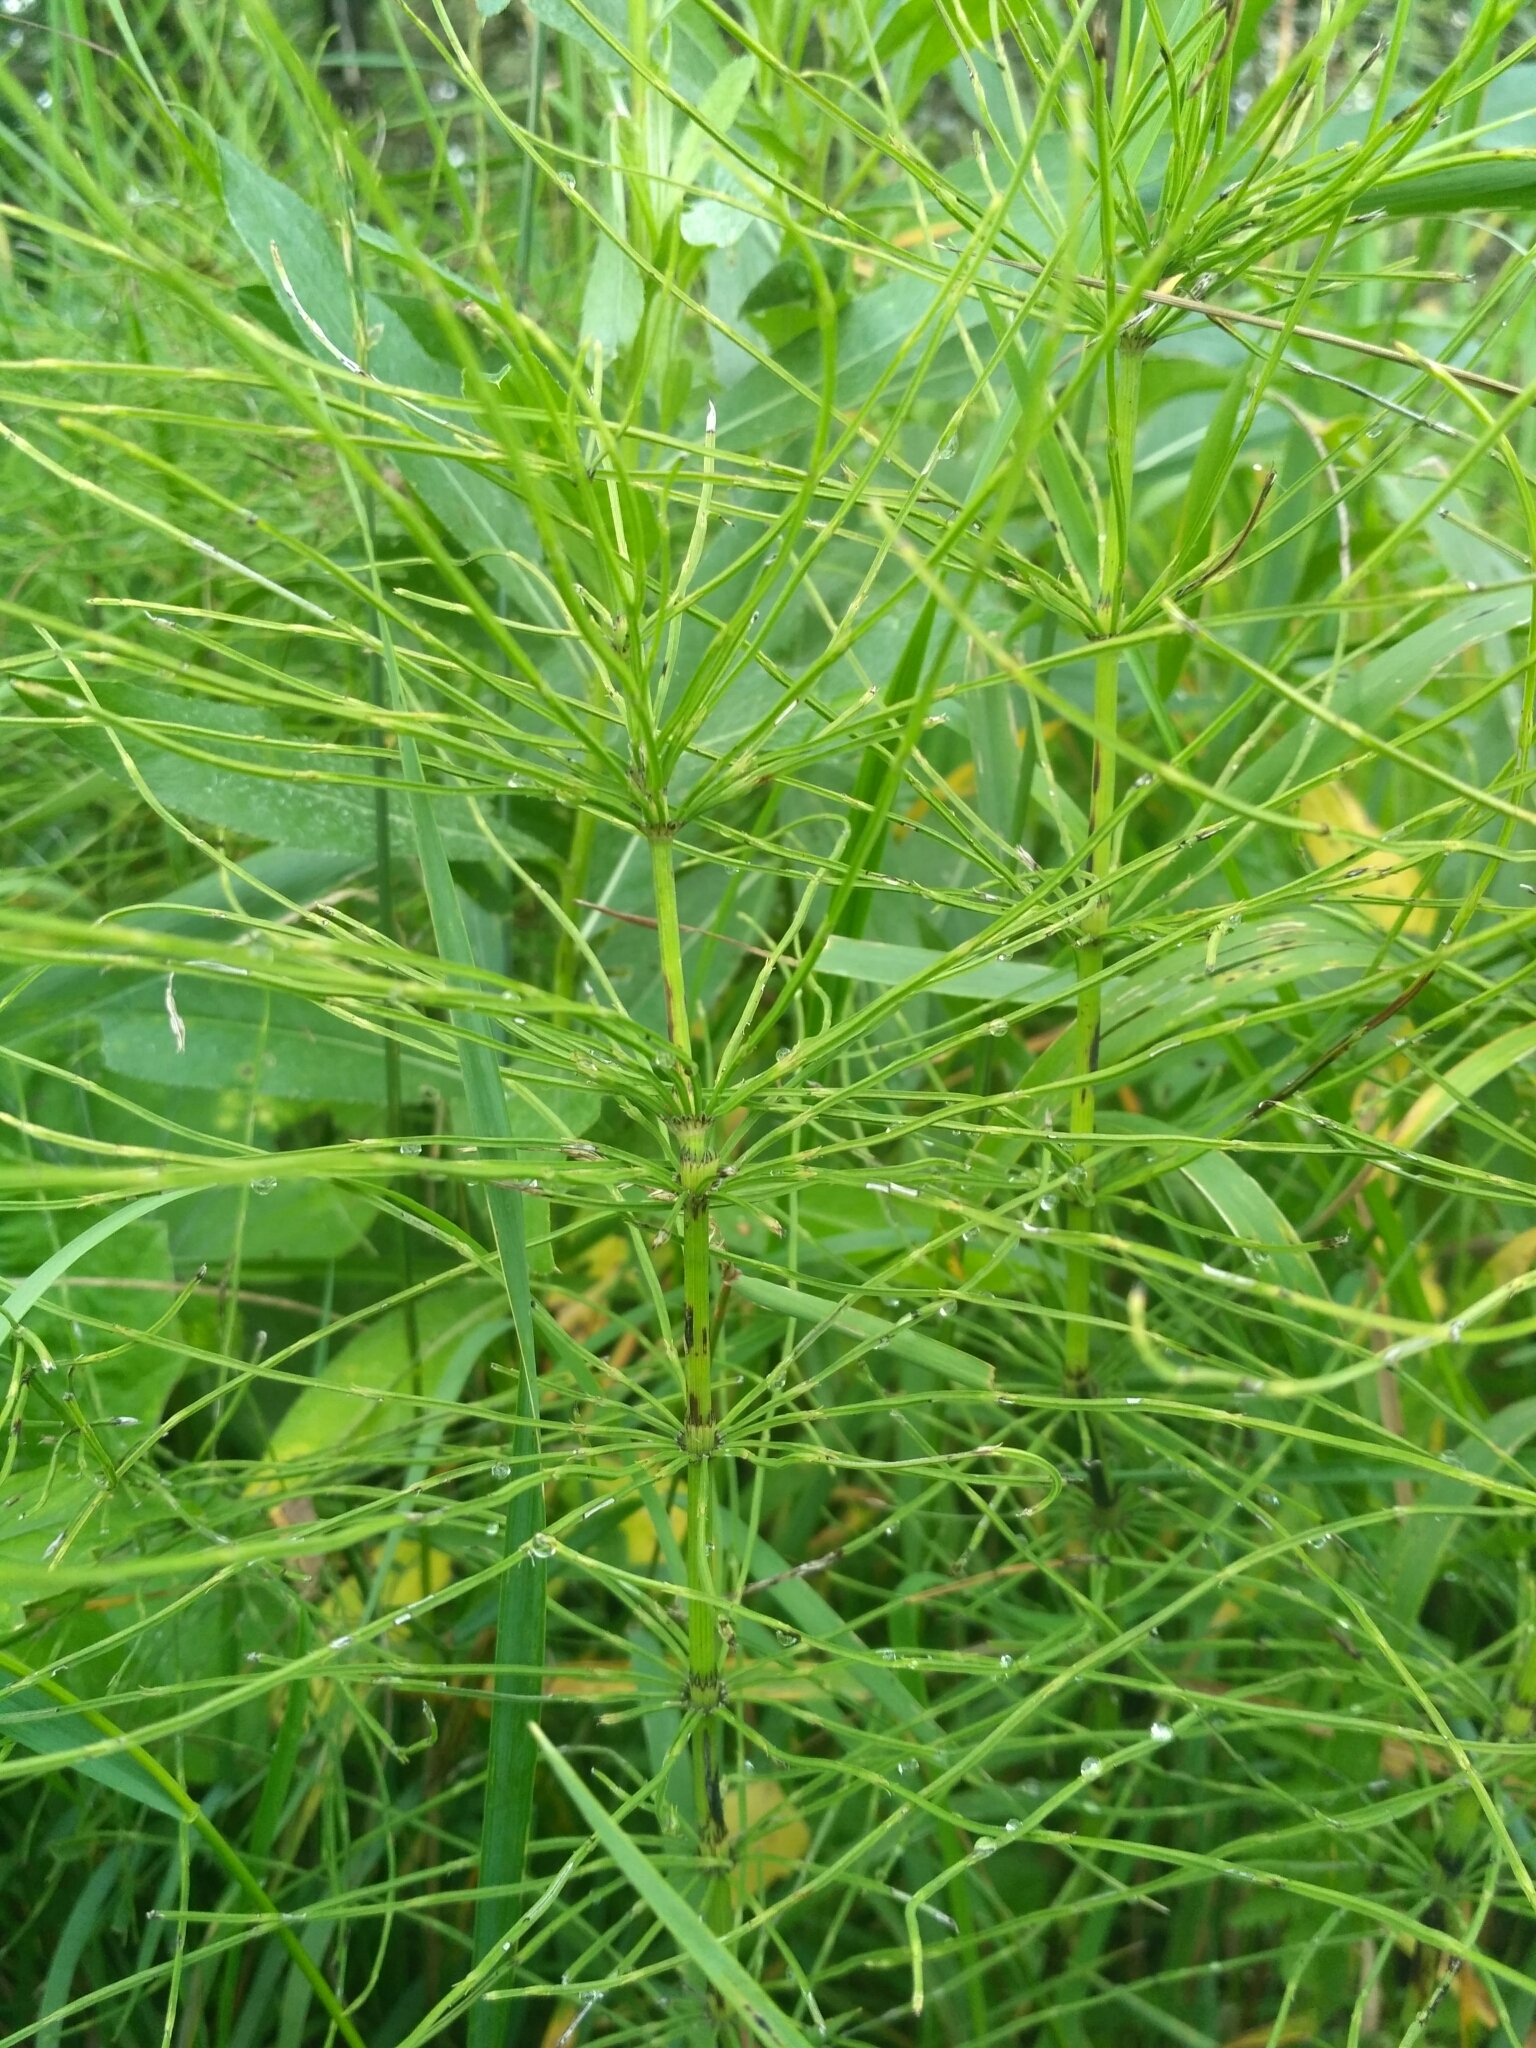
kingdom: Plantae
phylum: Tracheophyta
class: Polypodiopsida
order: Equisetales
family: Equisetaceae
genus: Equisetum
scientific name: Equisetum pratense
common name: Meadow horsetail
